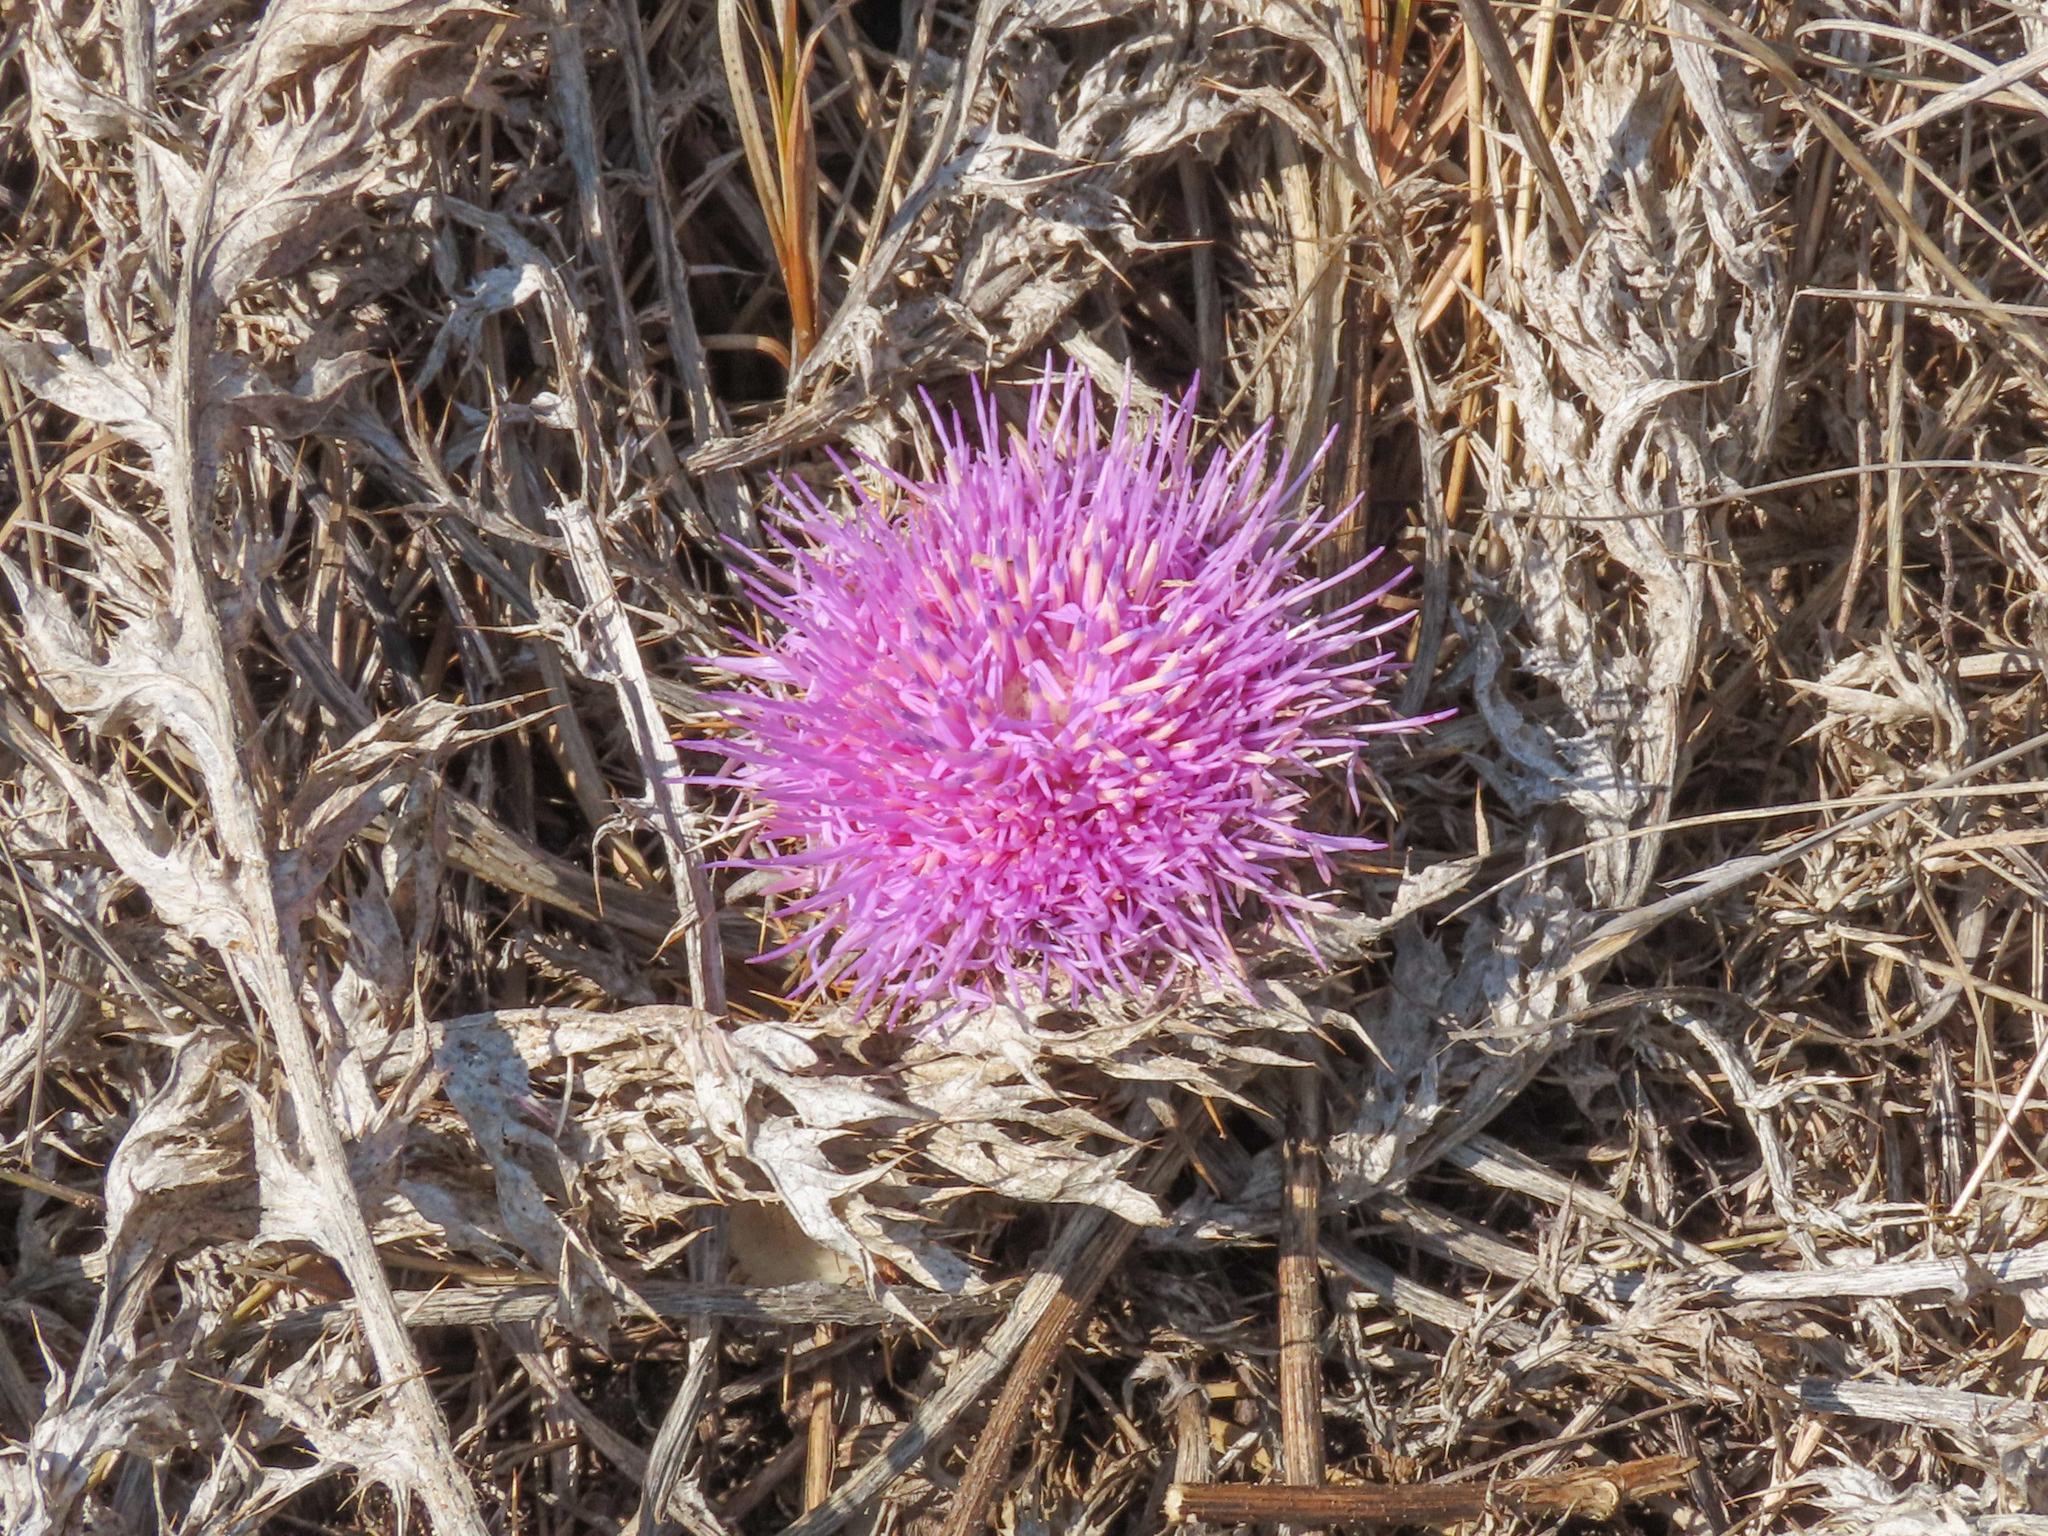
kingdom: Plantae
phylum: Tracheophyta
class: Magnoliopsida
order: Asterales
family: Asteraceae
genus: Chamaeleon
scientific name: Chamaeleon gummifer
